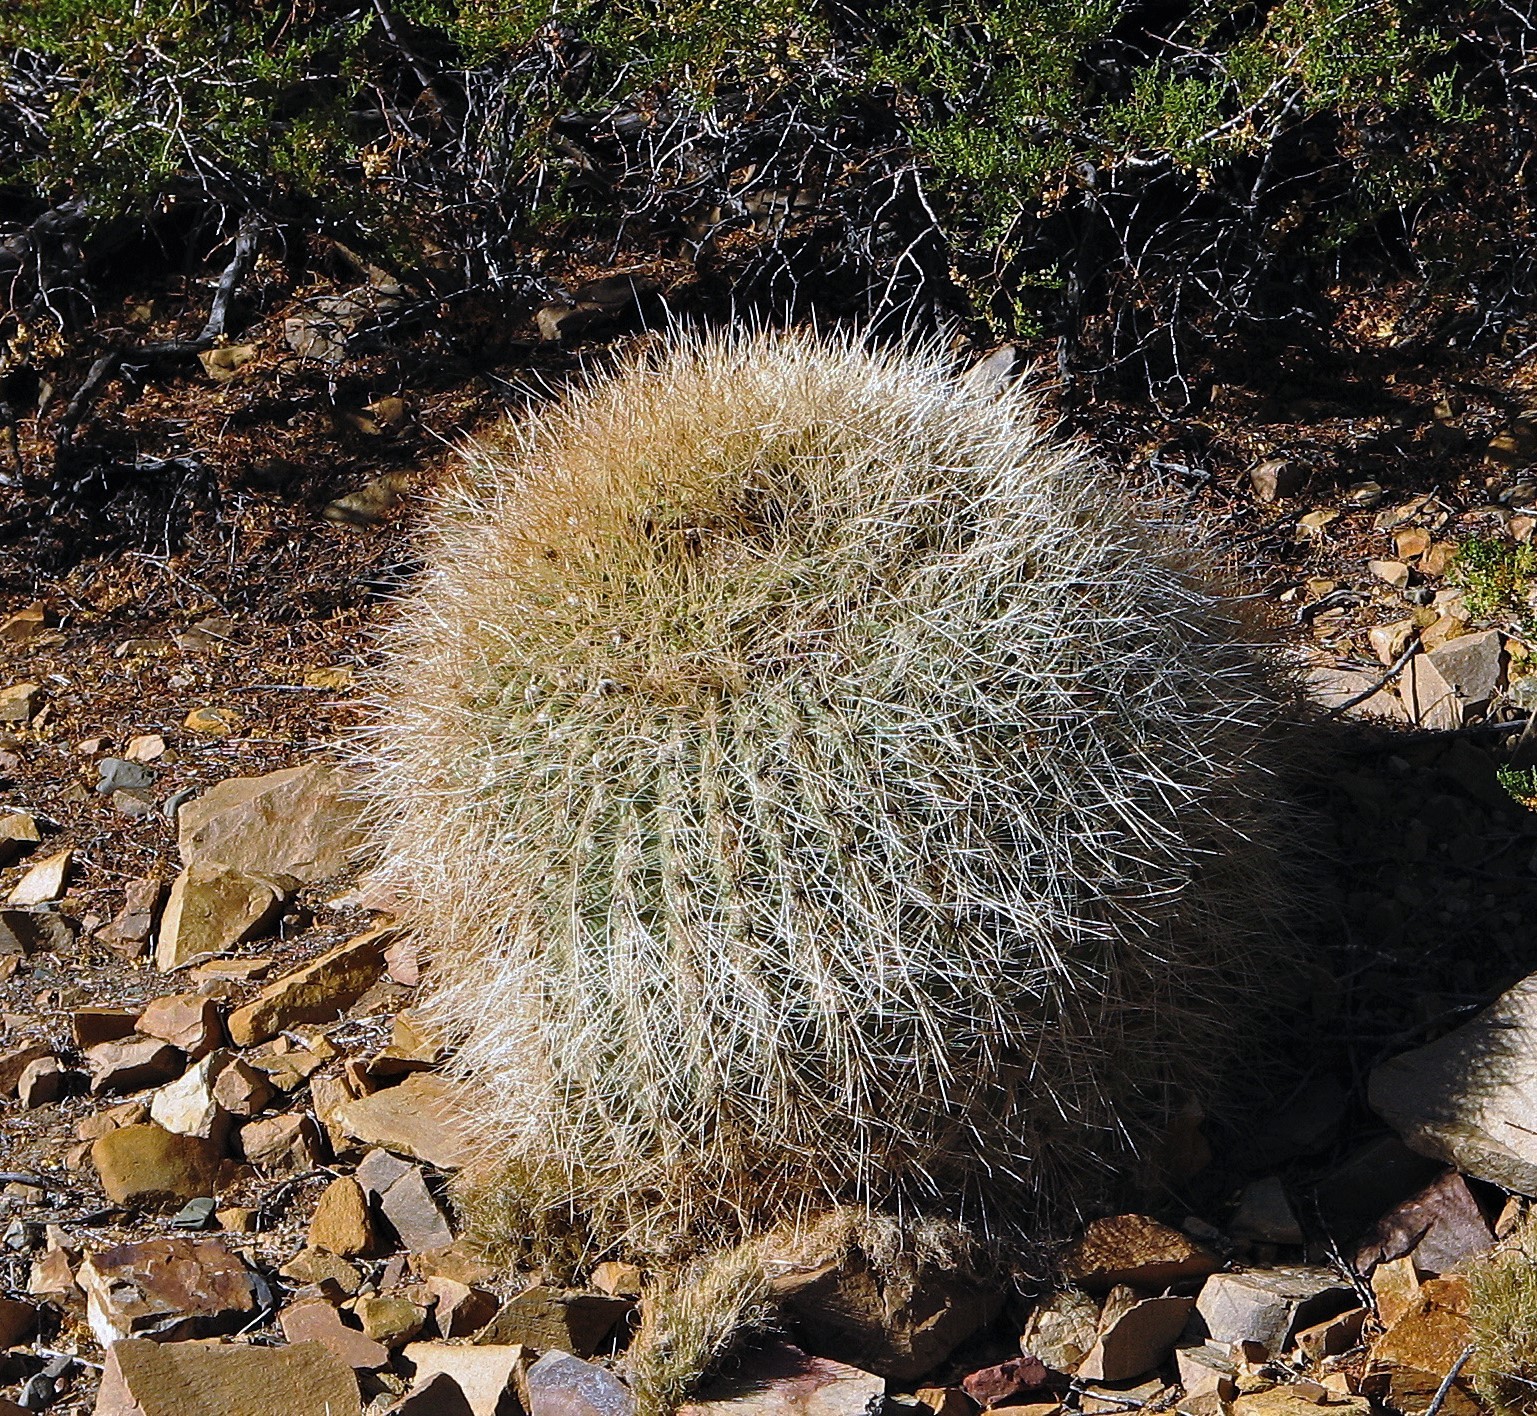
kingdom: Plantae
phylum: Tracheophyta
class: Magnoliopsida
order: Caryophyllales
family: Cactaceae
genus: Soehrensia
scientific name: Soehrensia formosa
